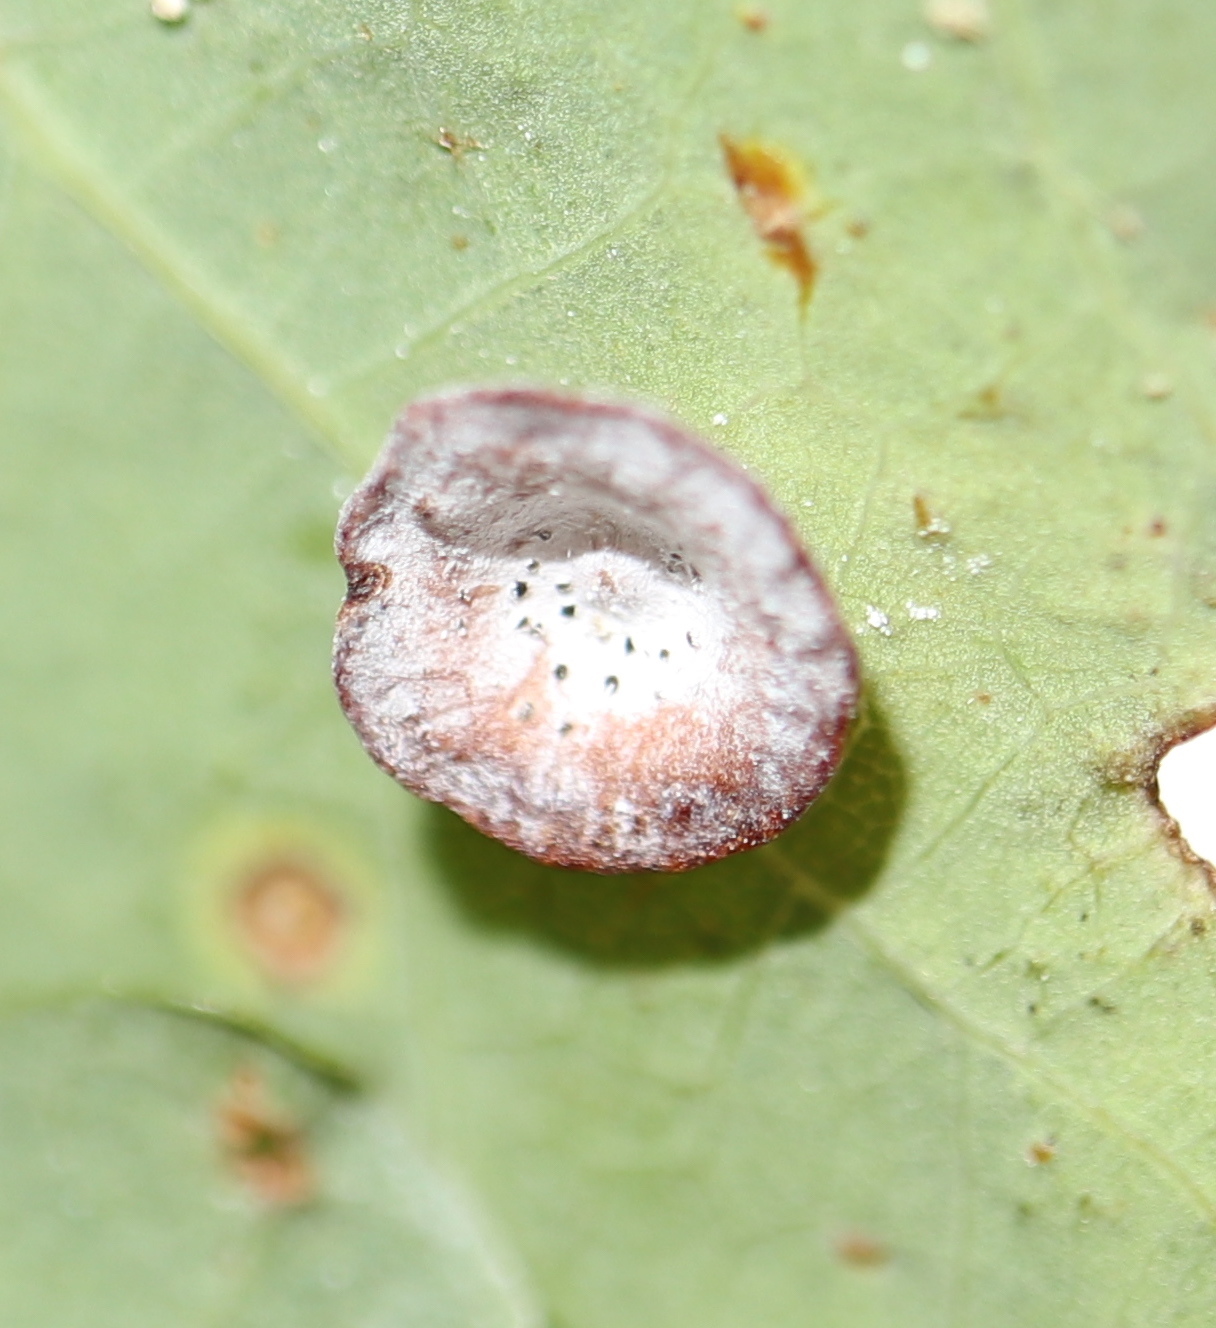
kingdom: Animalia
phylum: Arthropoda
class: Insecta
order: Hymenoptera
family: Cynipidae
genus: Phylloteras
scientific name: Phylloteras poculum
